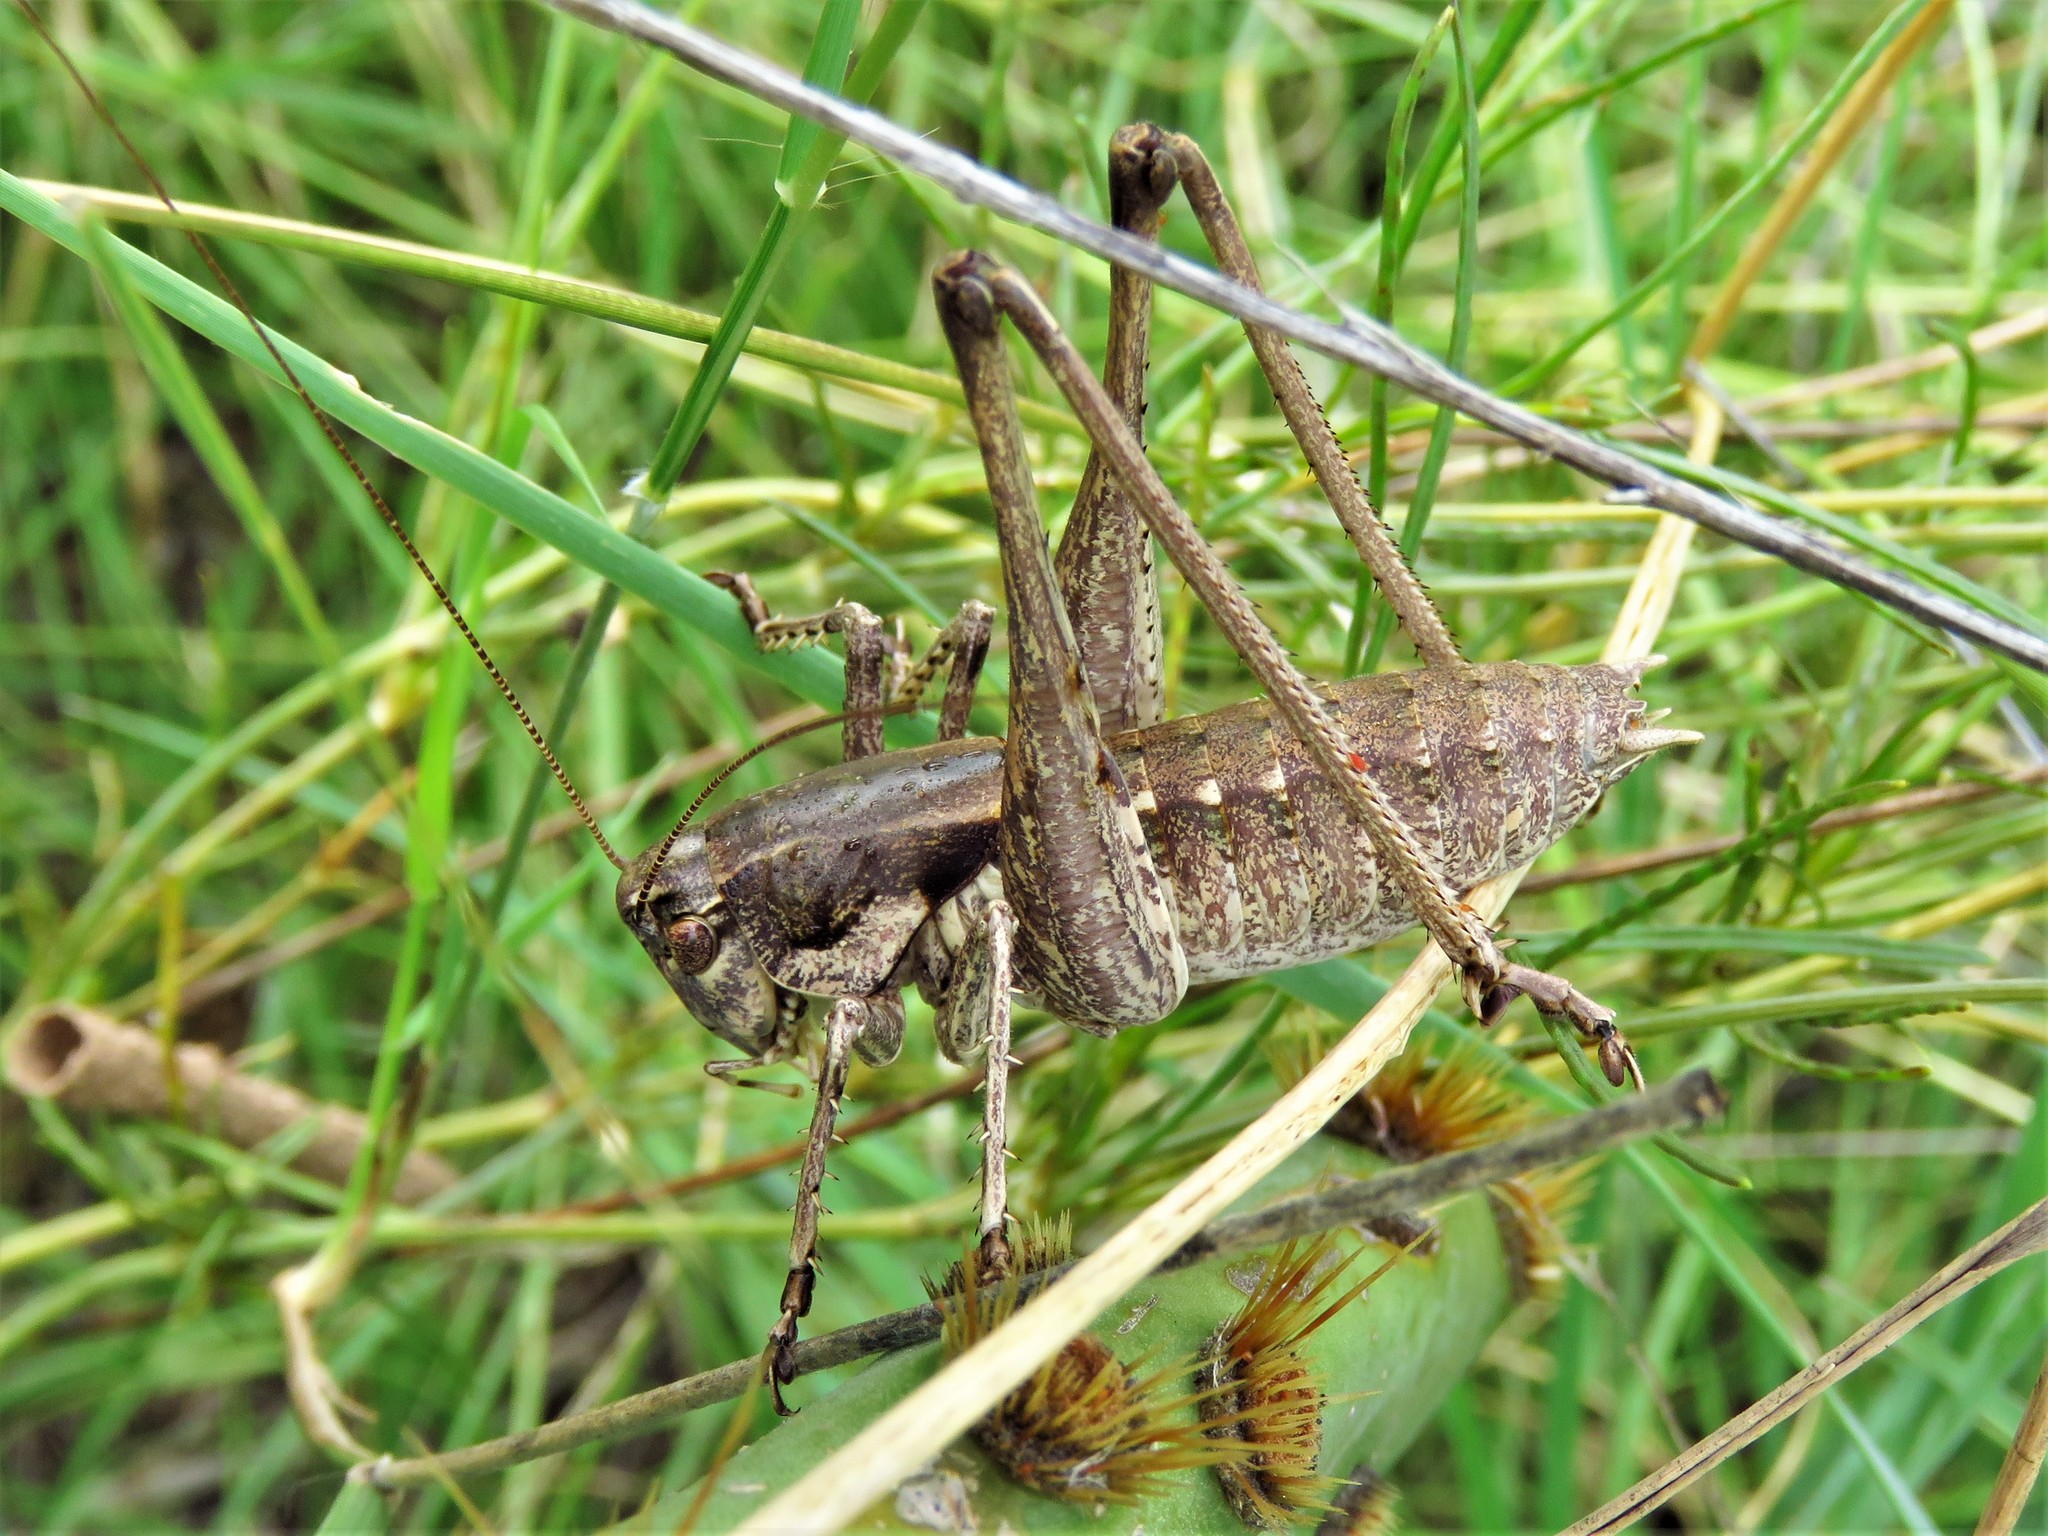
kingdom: Animalia
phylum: Arthropoda
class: Insecta
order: Orthoptera
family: Tettigoniidae
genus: Pediodectes
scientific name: Pediodectes nigromarginatus
